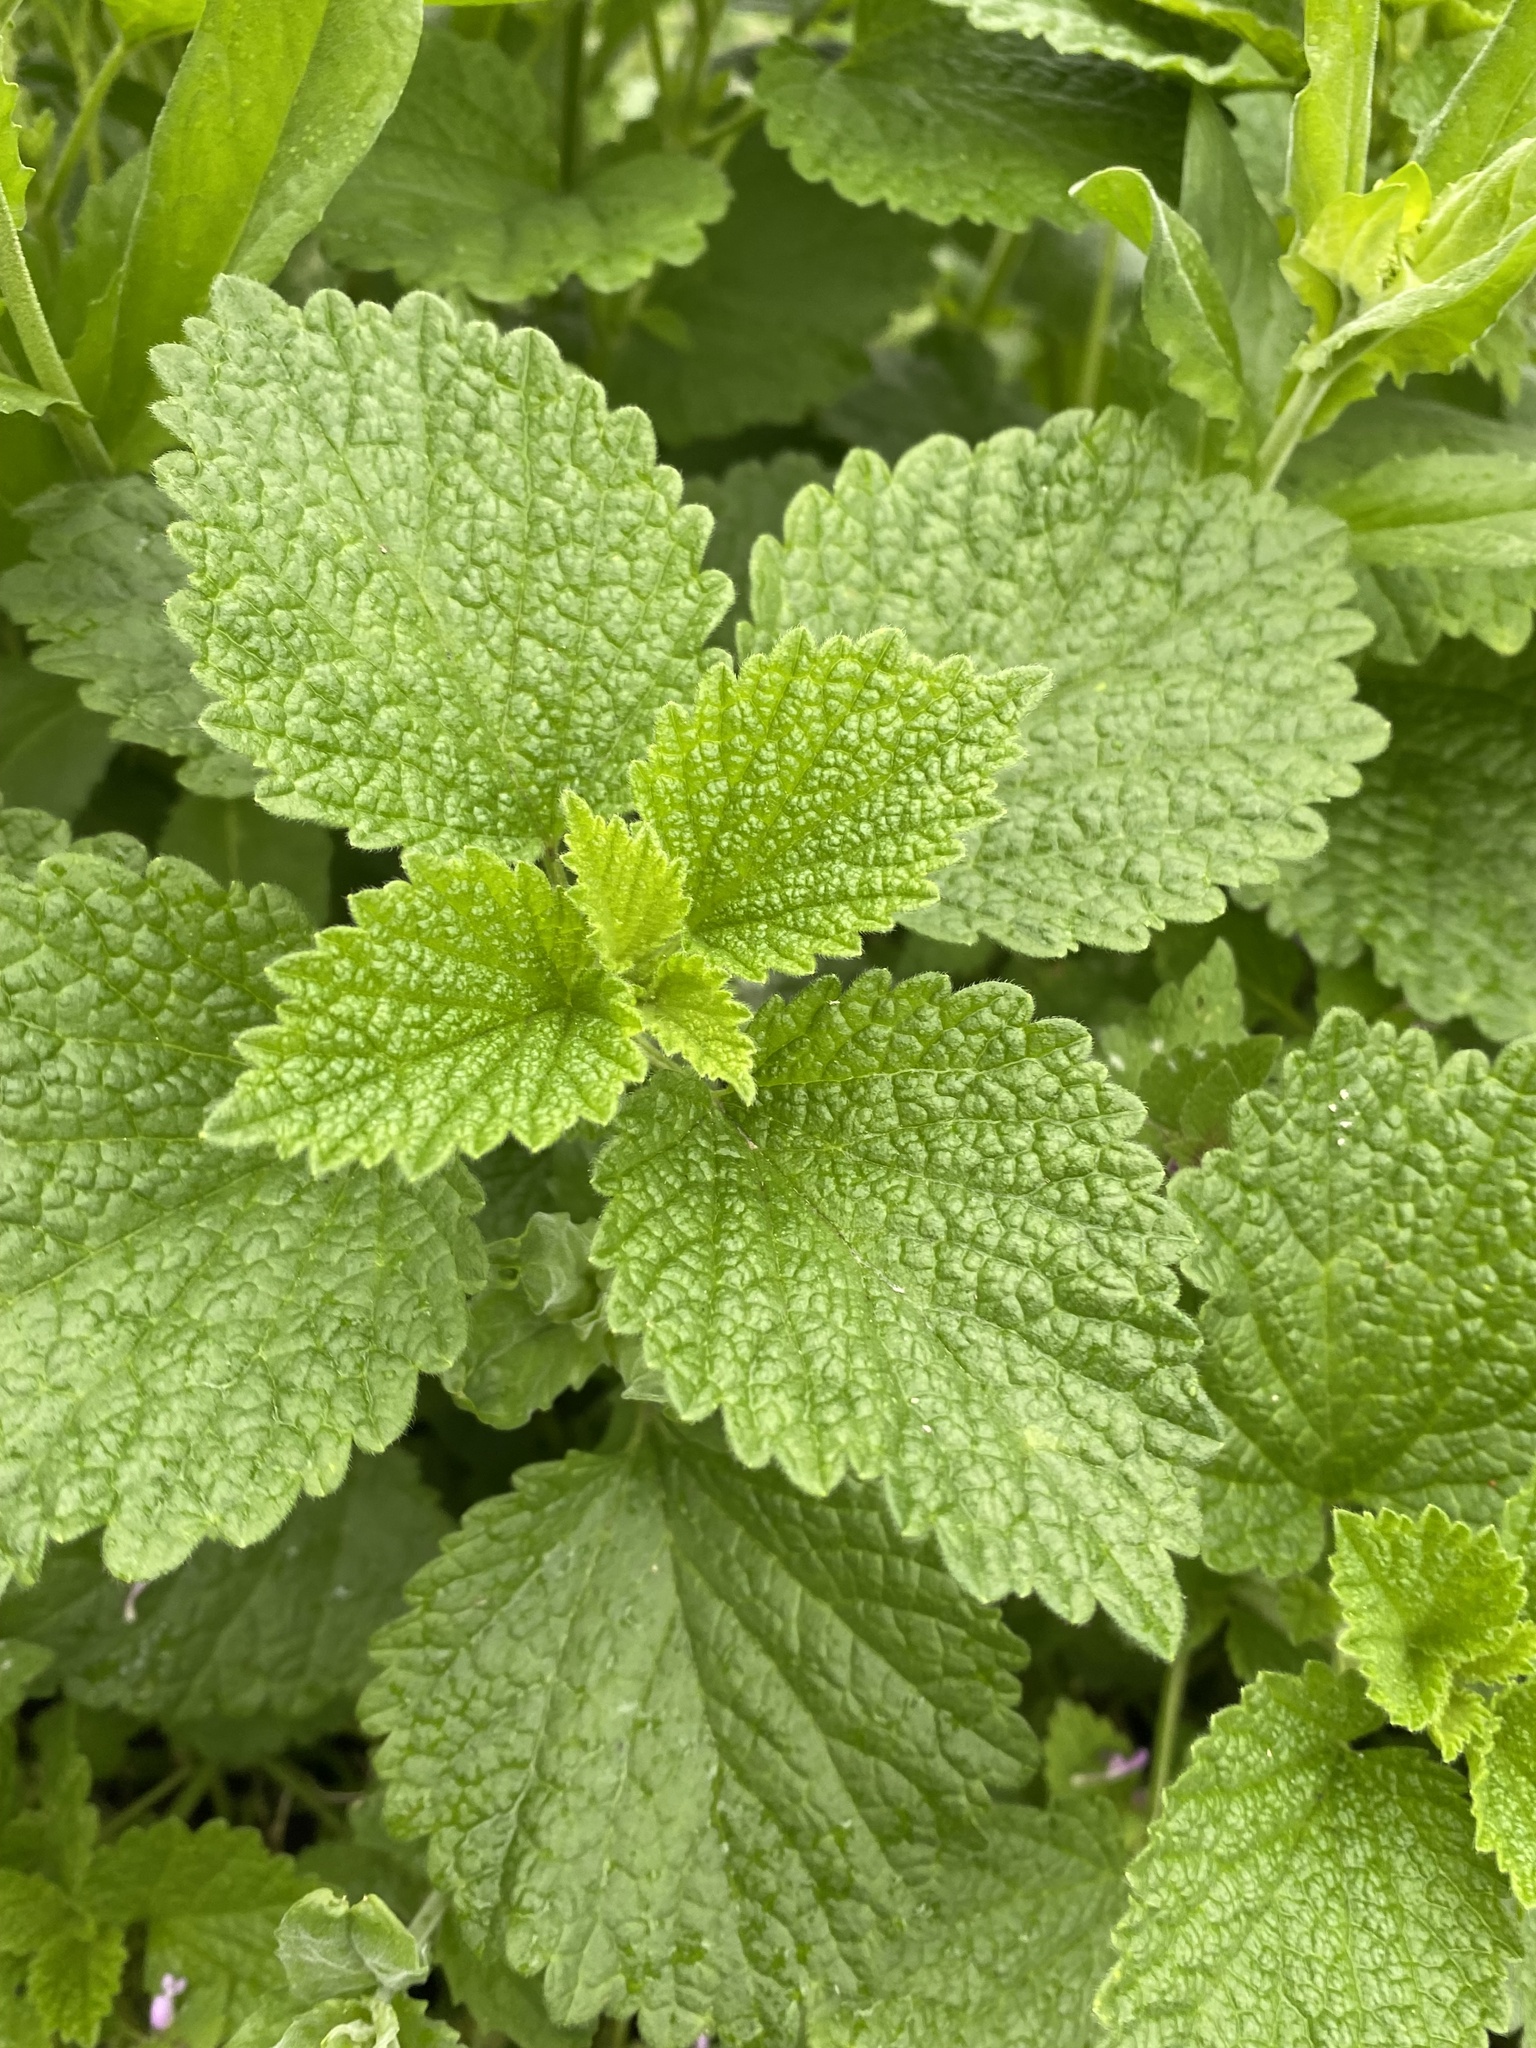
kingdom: Plantae
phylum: Tracheophyta
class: Magnoliopsida
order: Lamiales
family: Lamiaceae
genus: Ballota
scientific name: Ballota nigra
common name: Black horehound
